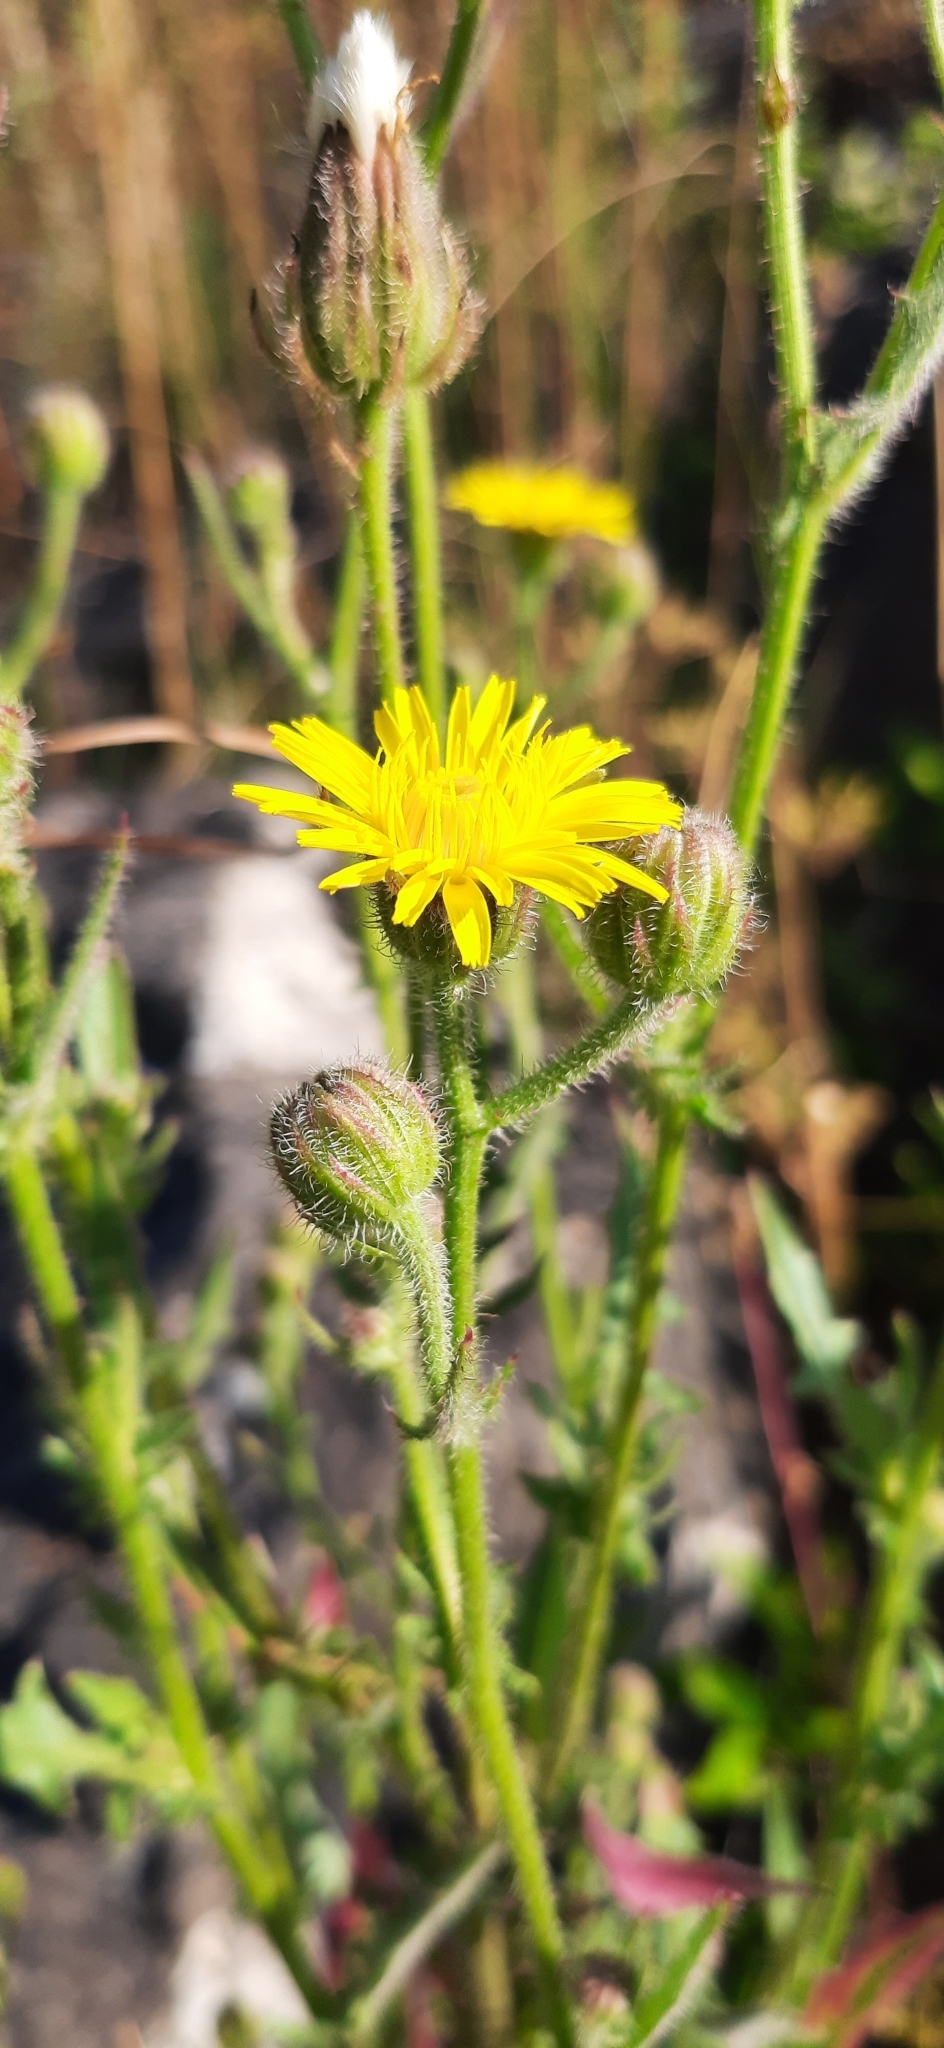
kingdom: Plantae
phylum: Tracheophyta
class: Magnoliopsida
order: Asterales
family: Asteraceae
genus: Crepis
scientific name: Crepis foetida
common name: Stinking hawk's-beard
